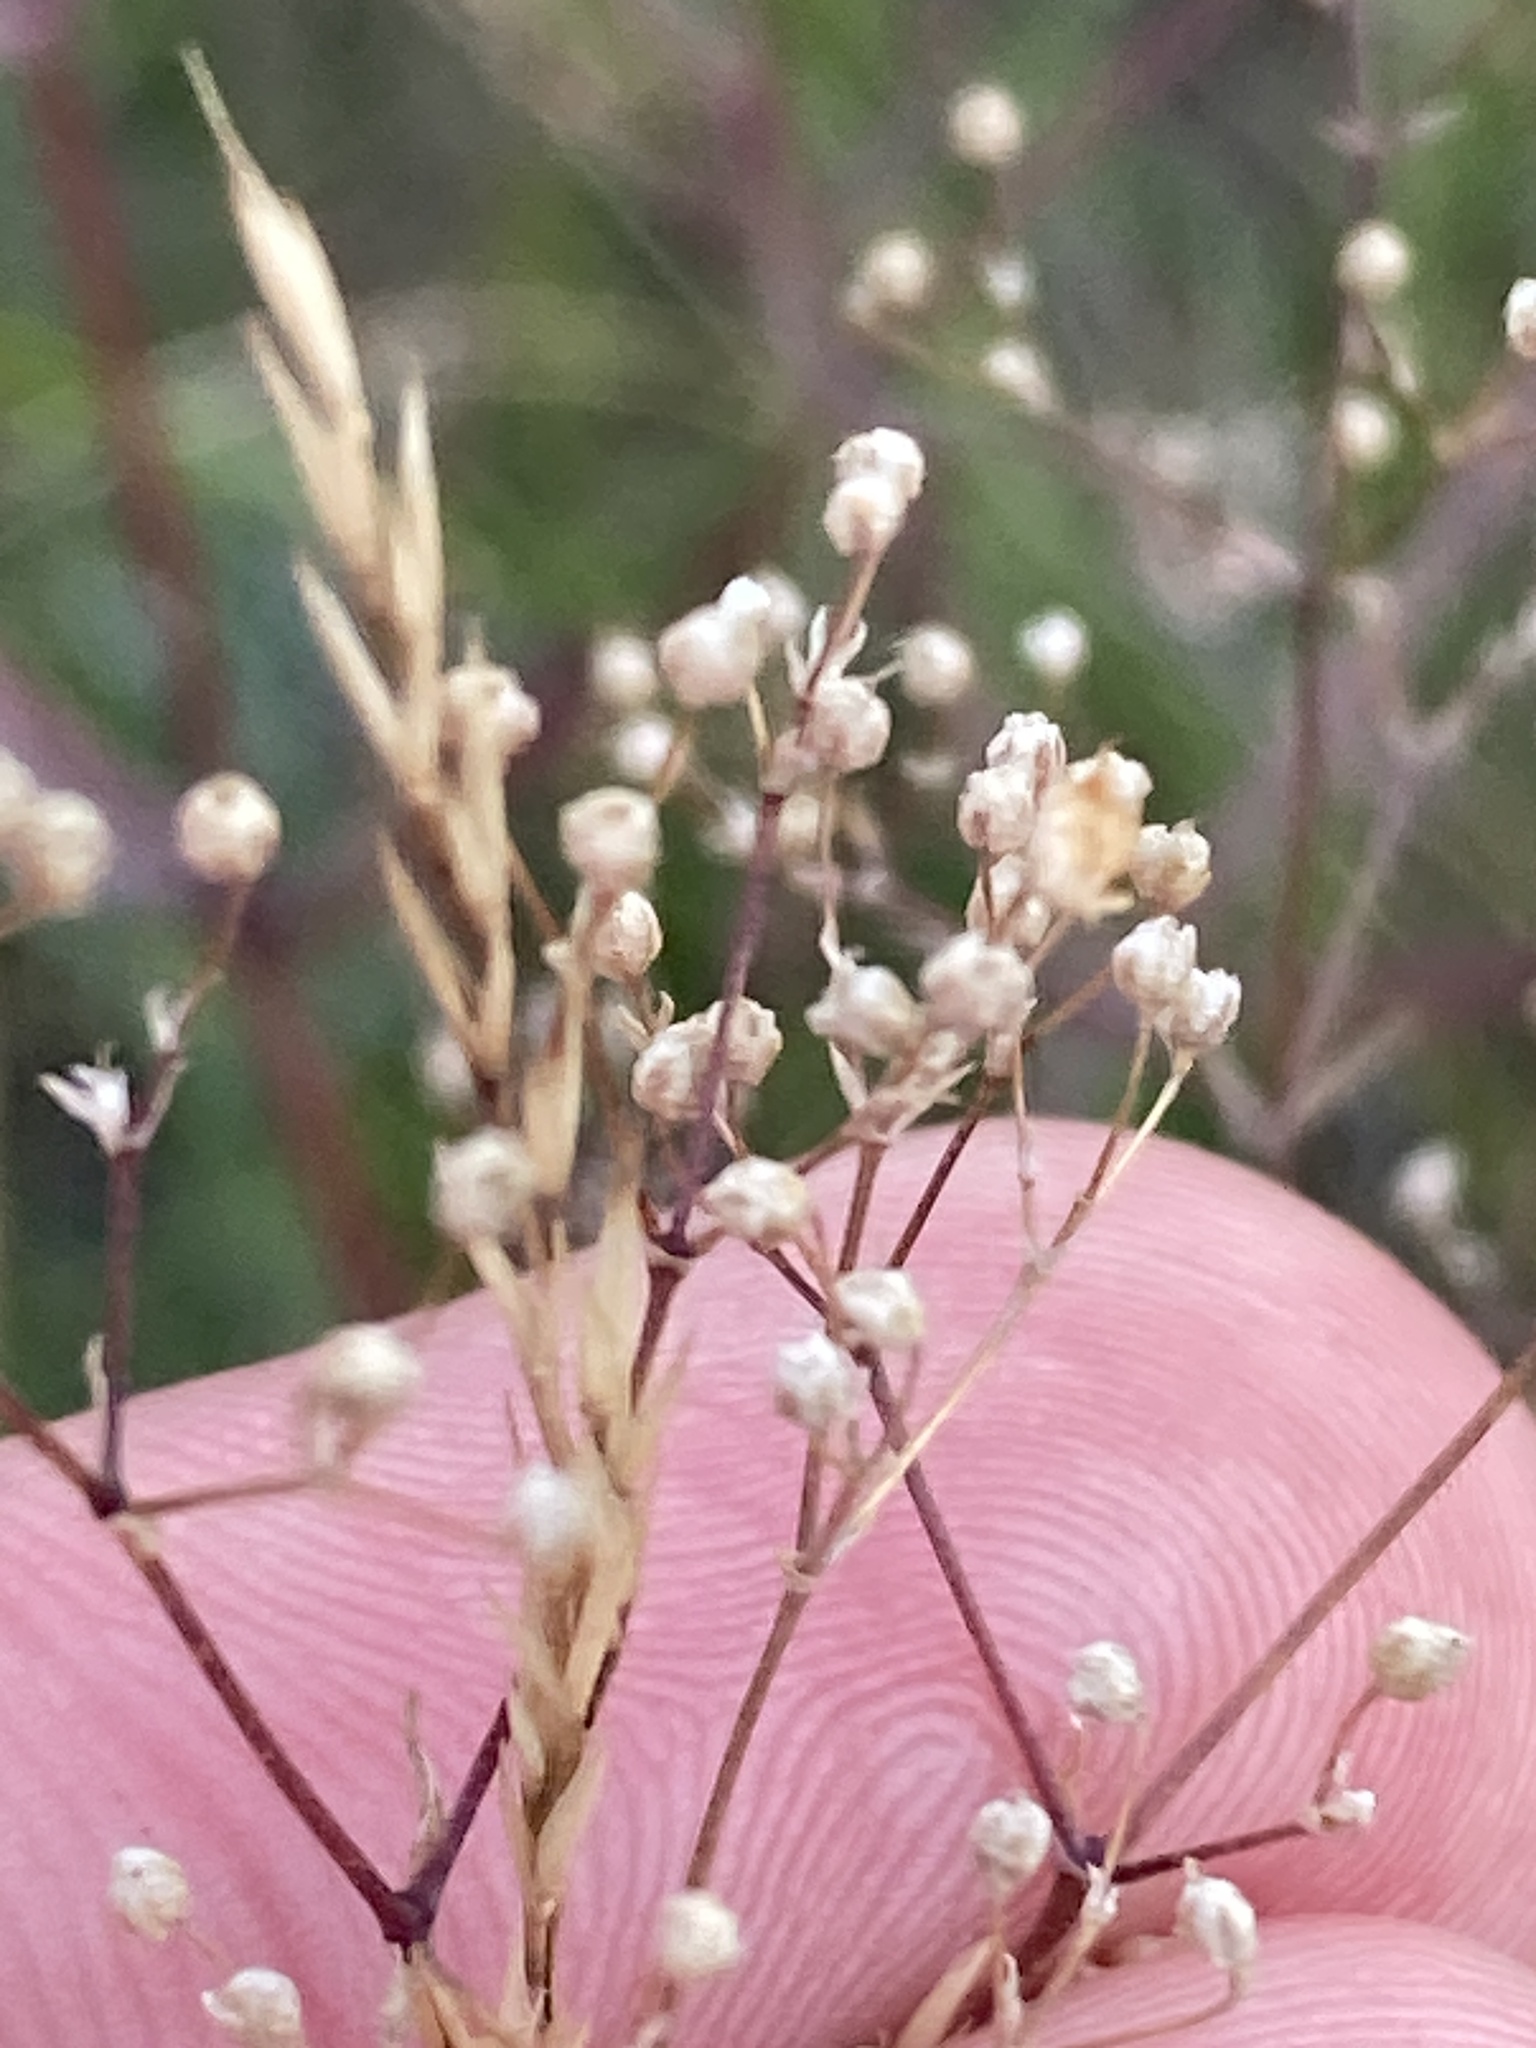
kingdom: Plantae
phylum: Tracheophyta
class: Magnoliopsida
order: Caryophyllales
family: Caryophyllaceae
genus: Gypsophila
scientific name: Gypsophila paniculata
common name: Baby's-breath
